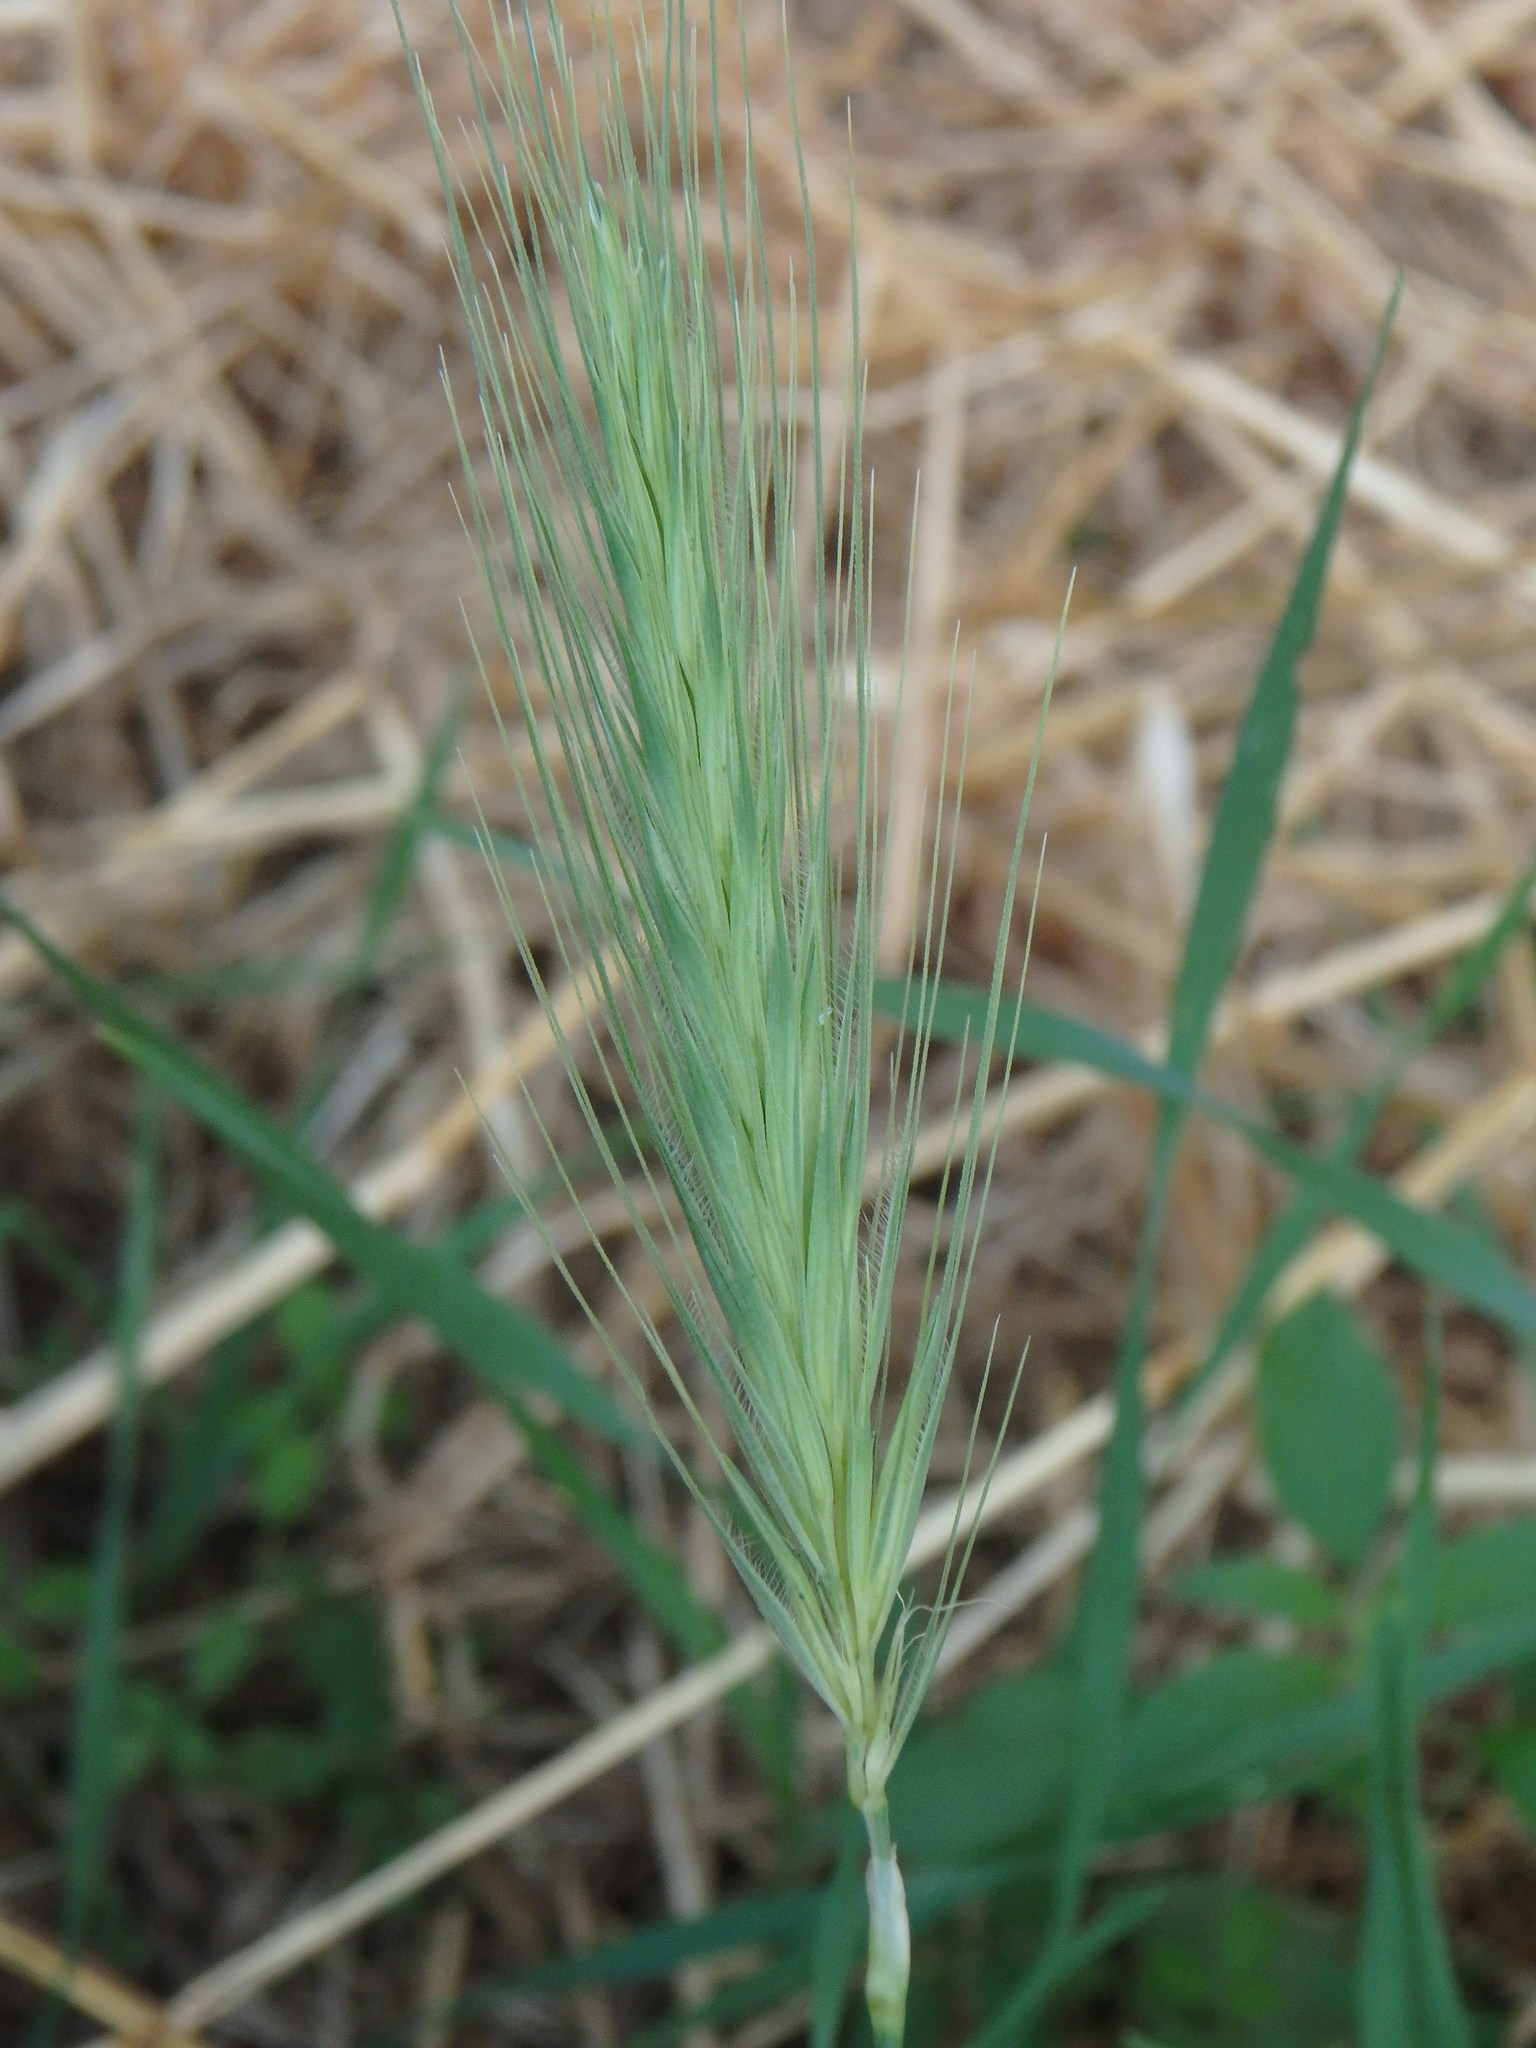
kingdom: Plantae
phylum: Tracheophyta
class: Liliopsida
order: Poales
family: Poaceae
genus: Hordeum
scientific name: Hordeum murinum
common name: Wall barley
